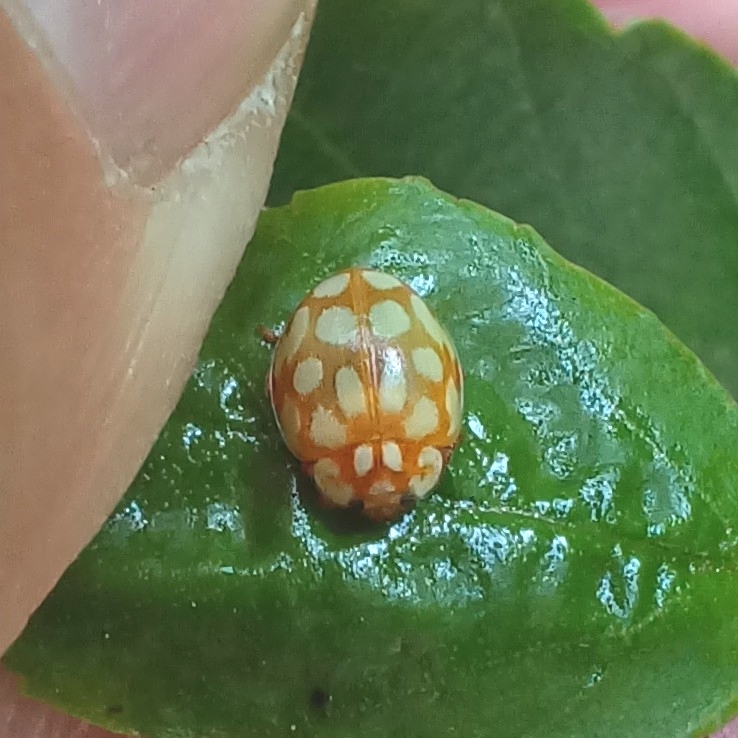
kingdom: Animalia
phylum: Arthropoda
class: Insecta
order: Coleoptera
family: Coccinellidae
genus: Sospita
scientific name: Sospita vigintiguttata
